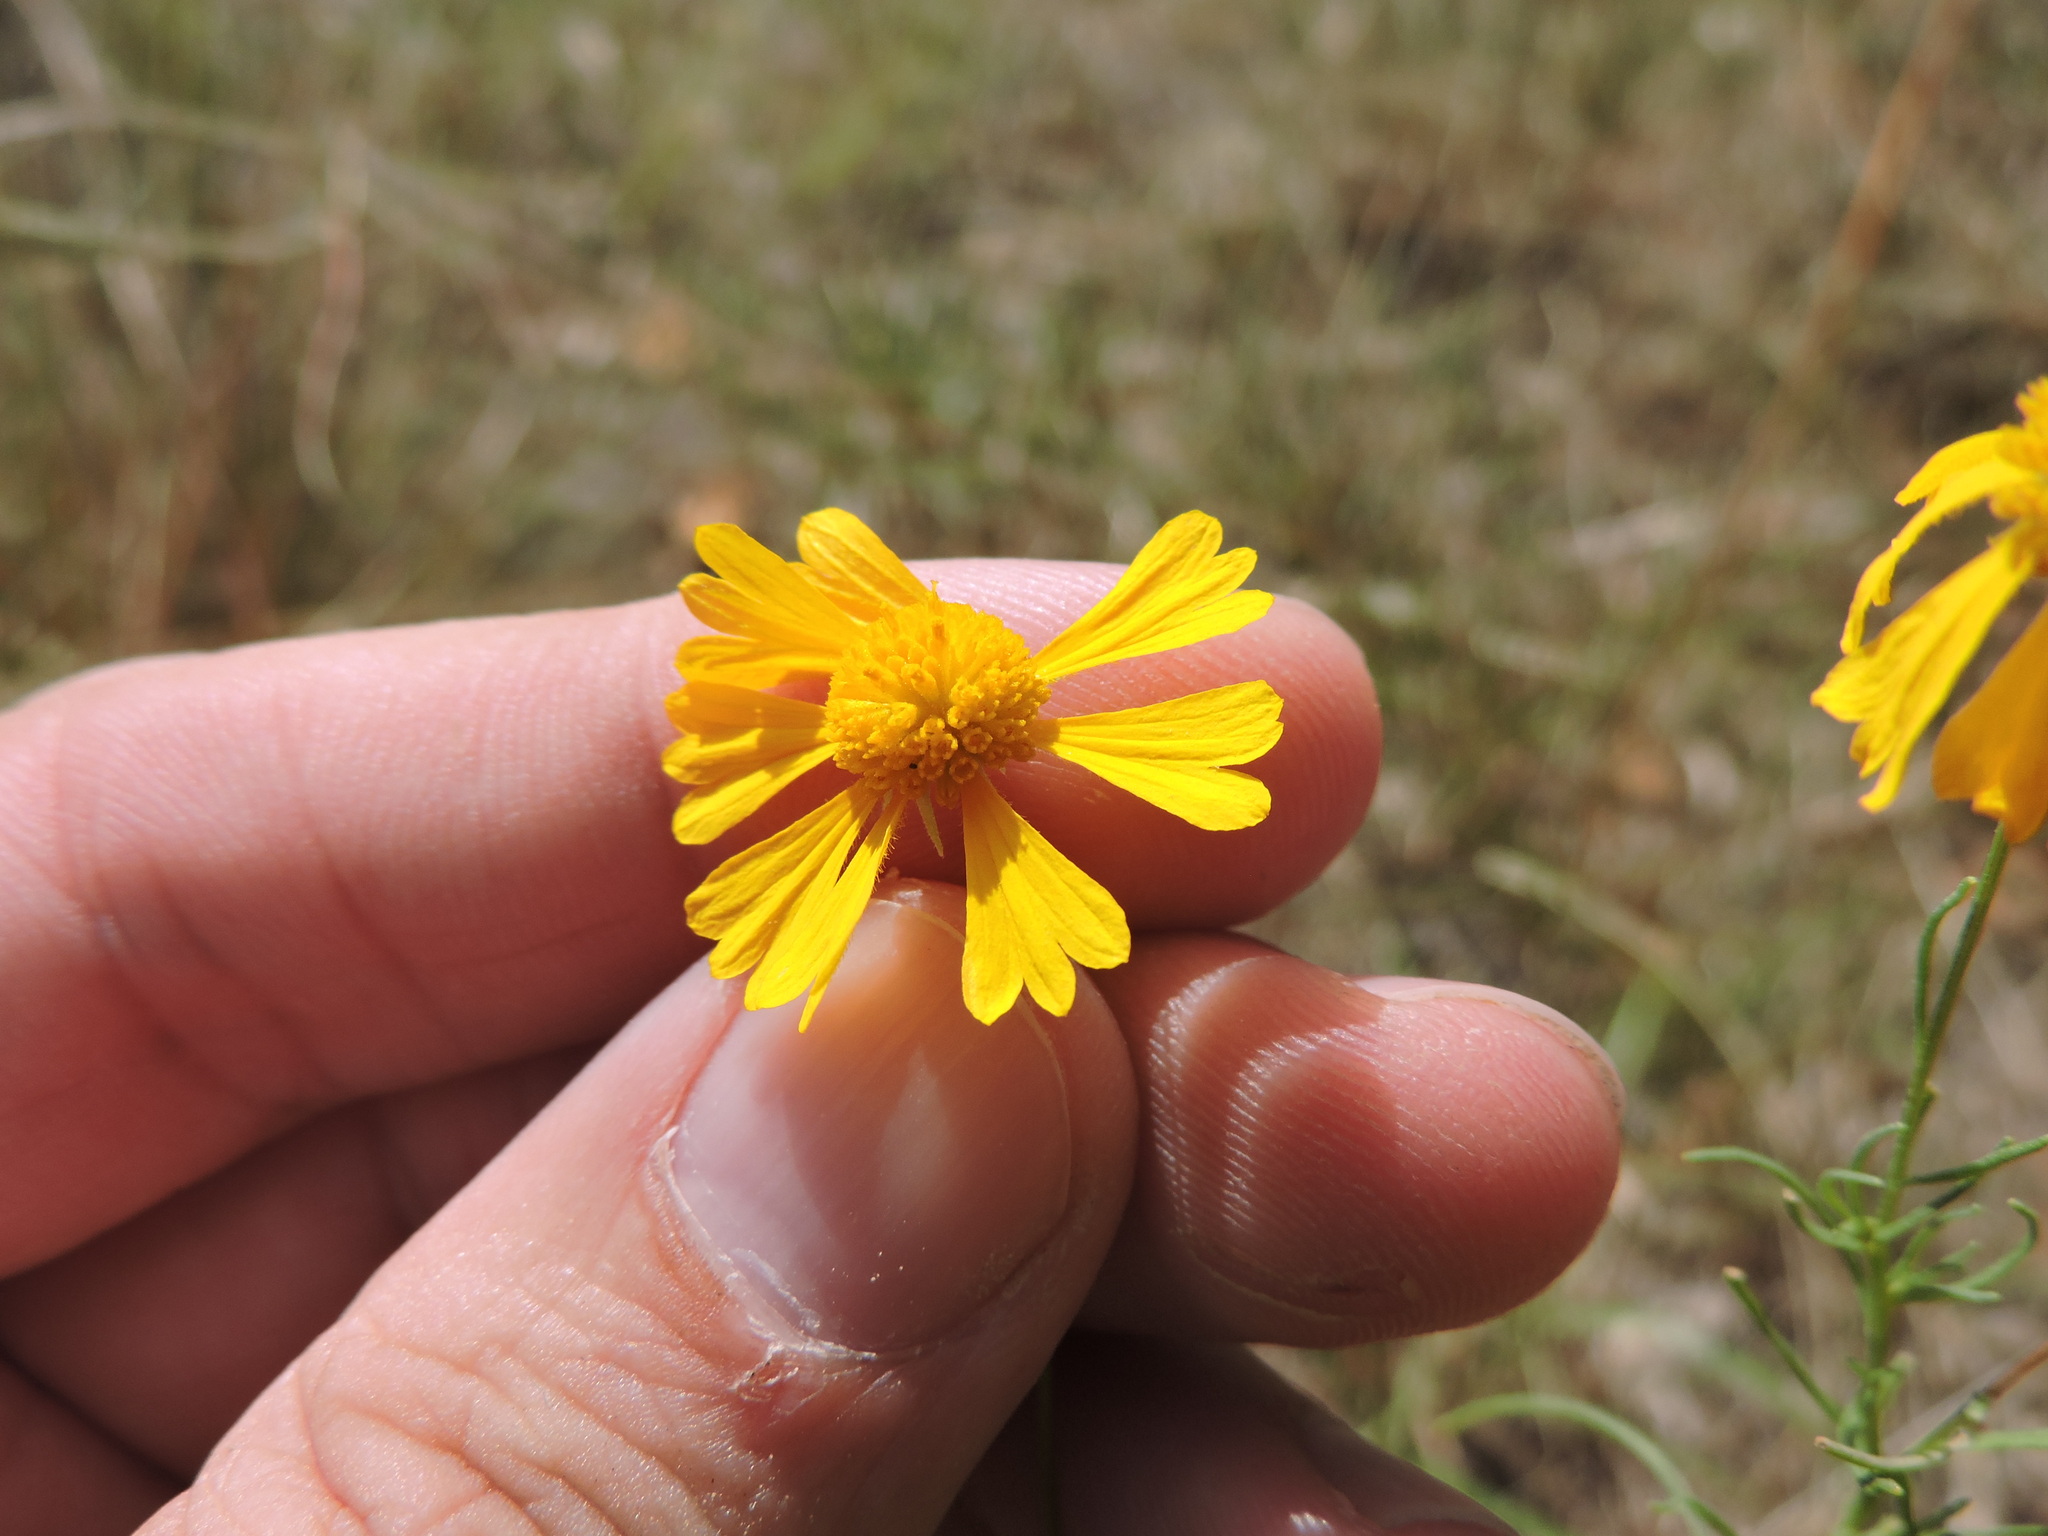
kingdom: Plantae
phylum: Tracheophyta
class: Magnoliopsida
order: Asterales
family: Asteraceae
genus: Helenium
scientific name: Helenium amarum
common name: Bitter sneezeweed
